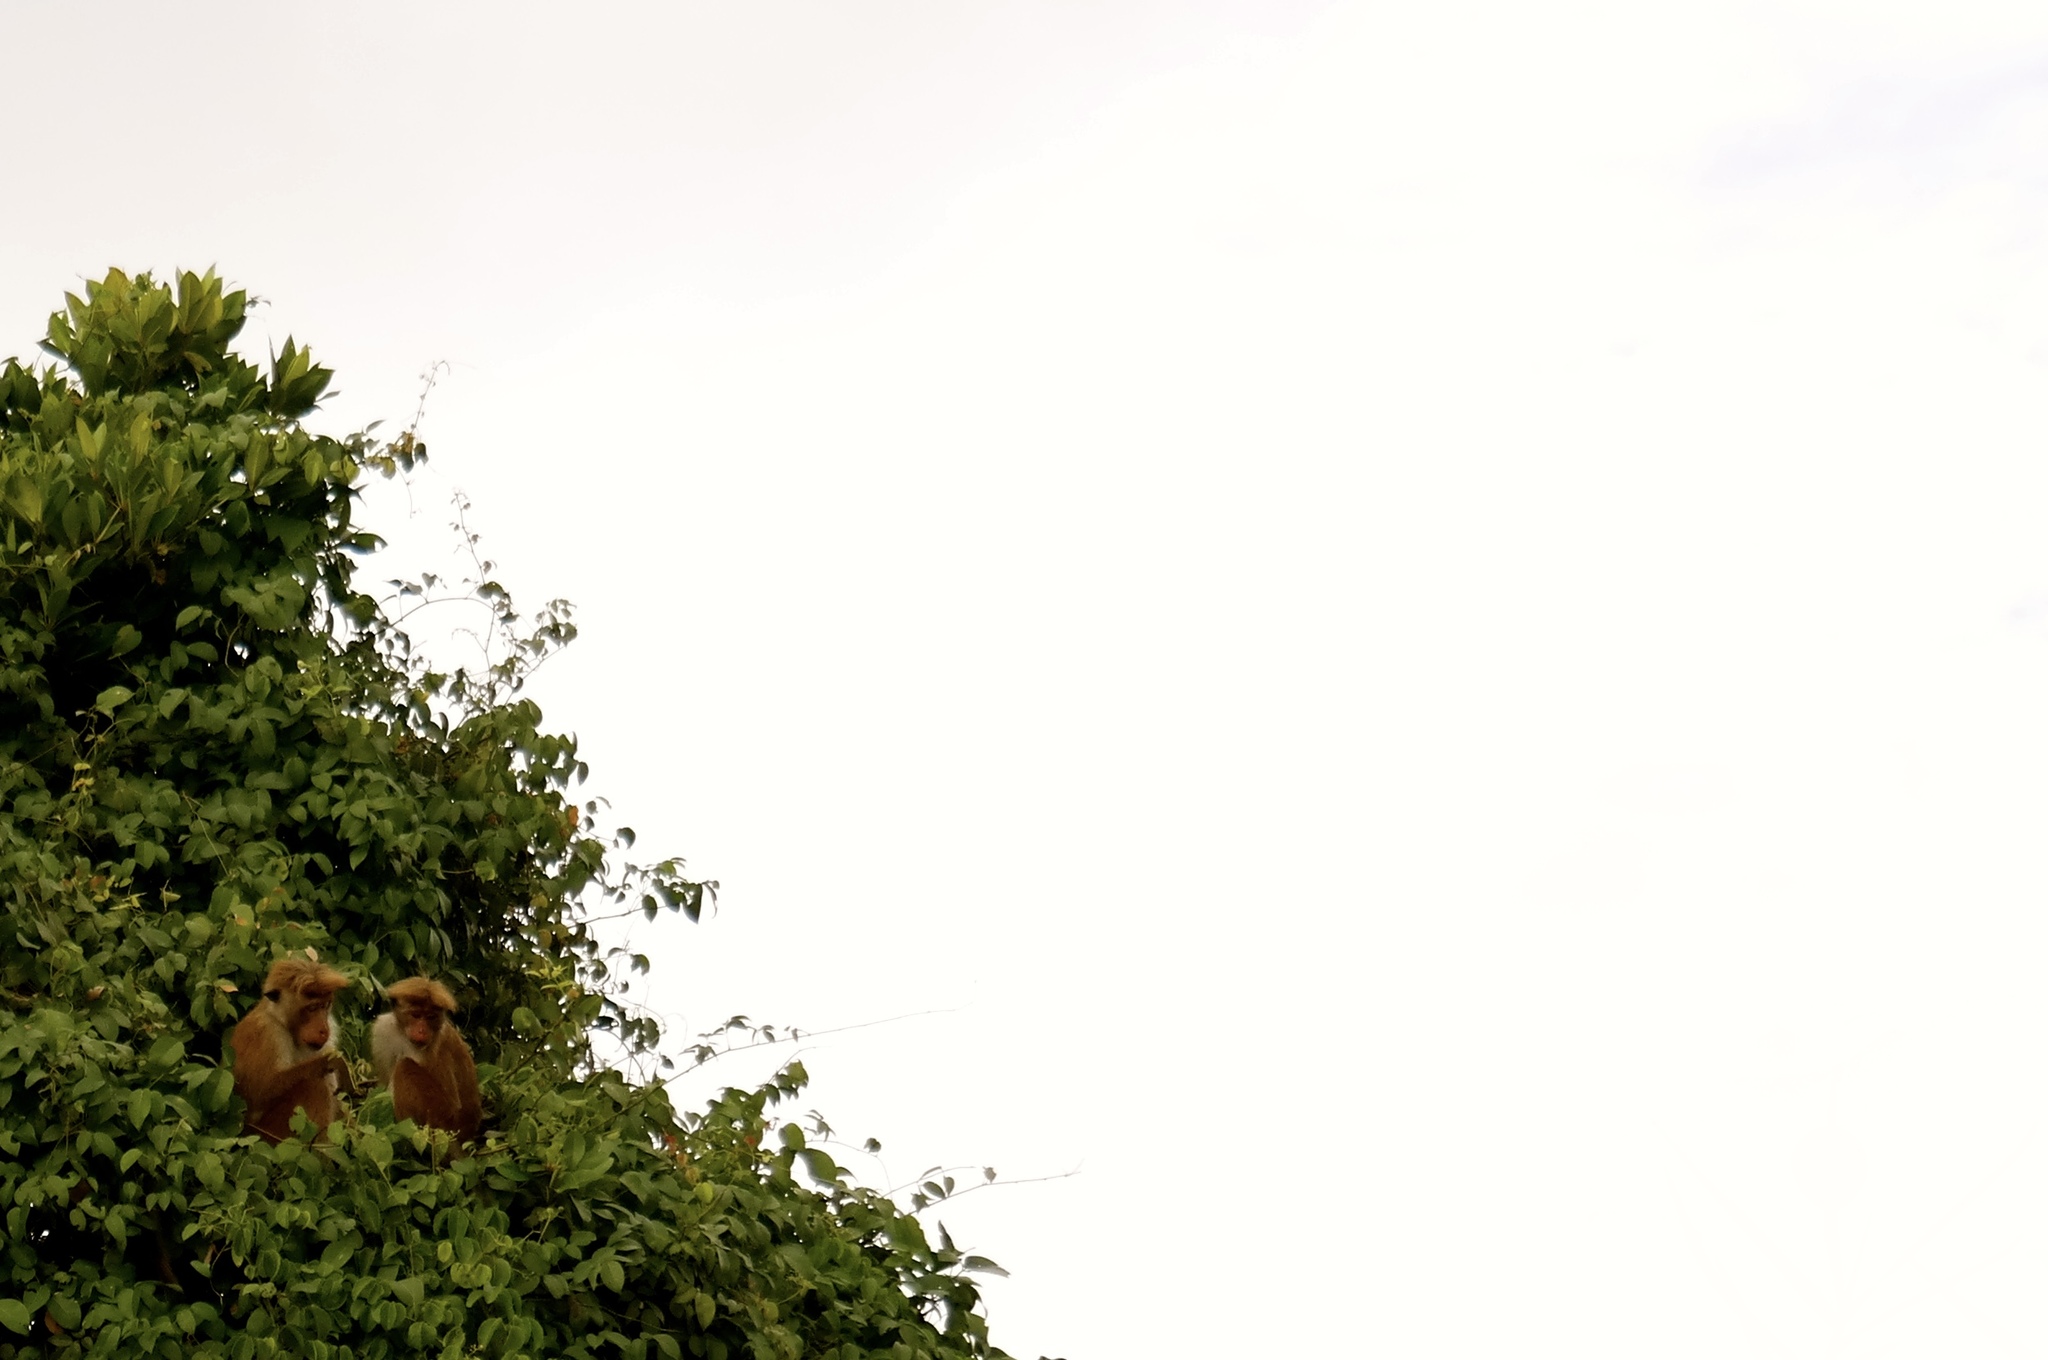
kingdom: Animalia
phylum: Chordata
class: Mammalia
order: Primates
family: Cercopithecidae
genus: Macaca
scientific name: Macaca sinica
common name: Toque macaque
